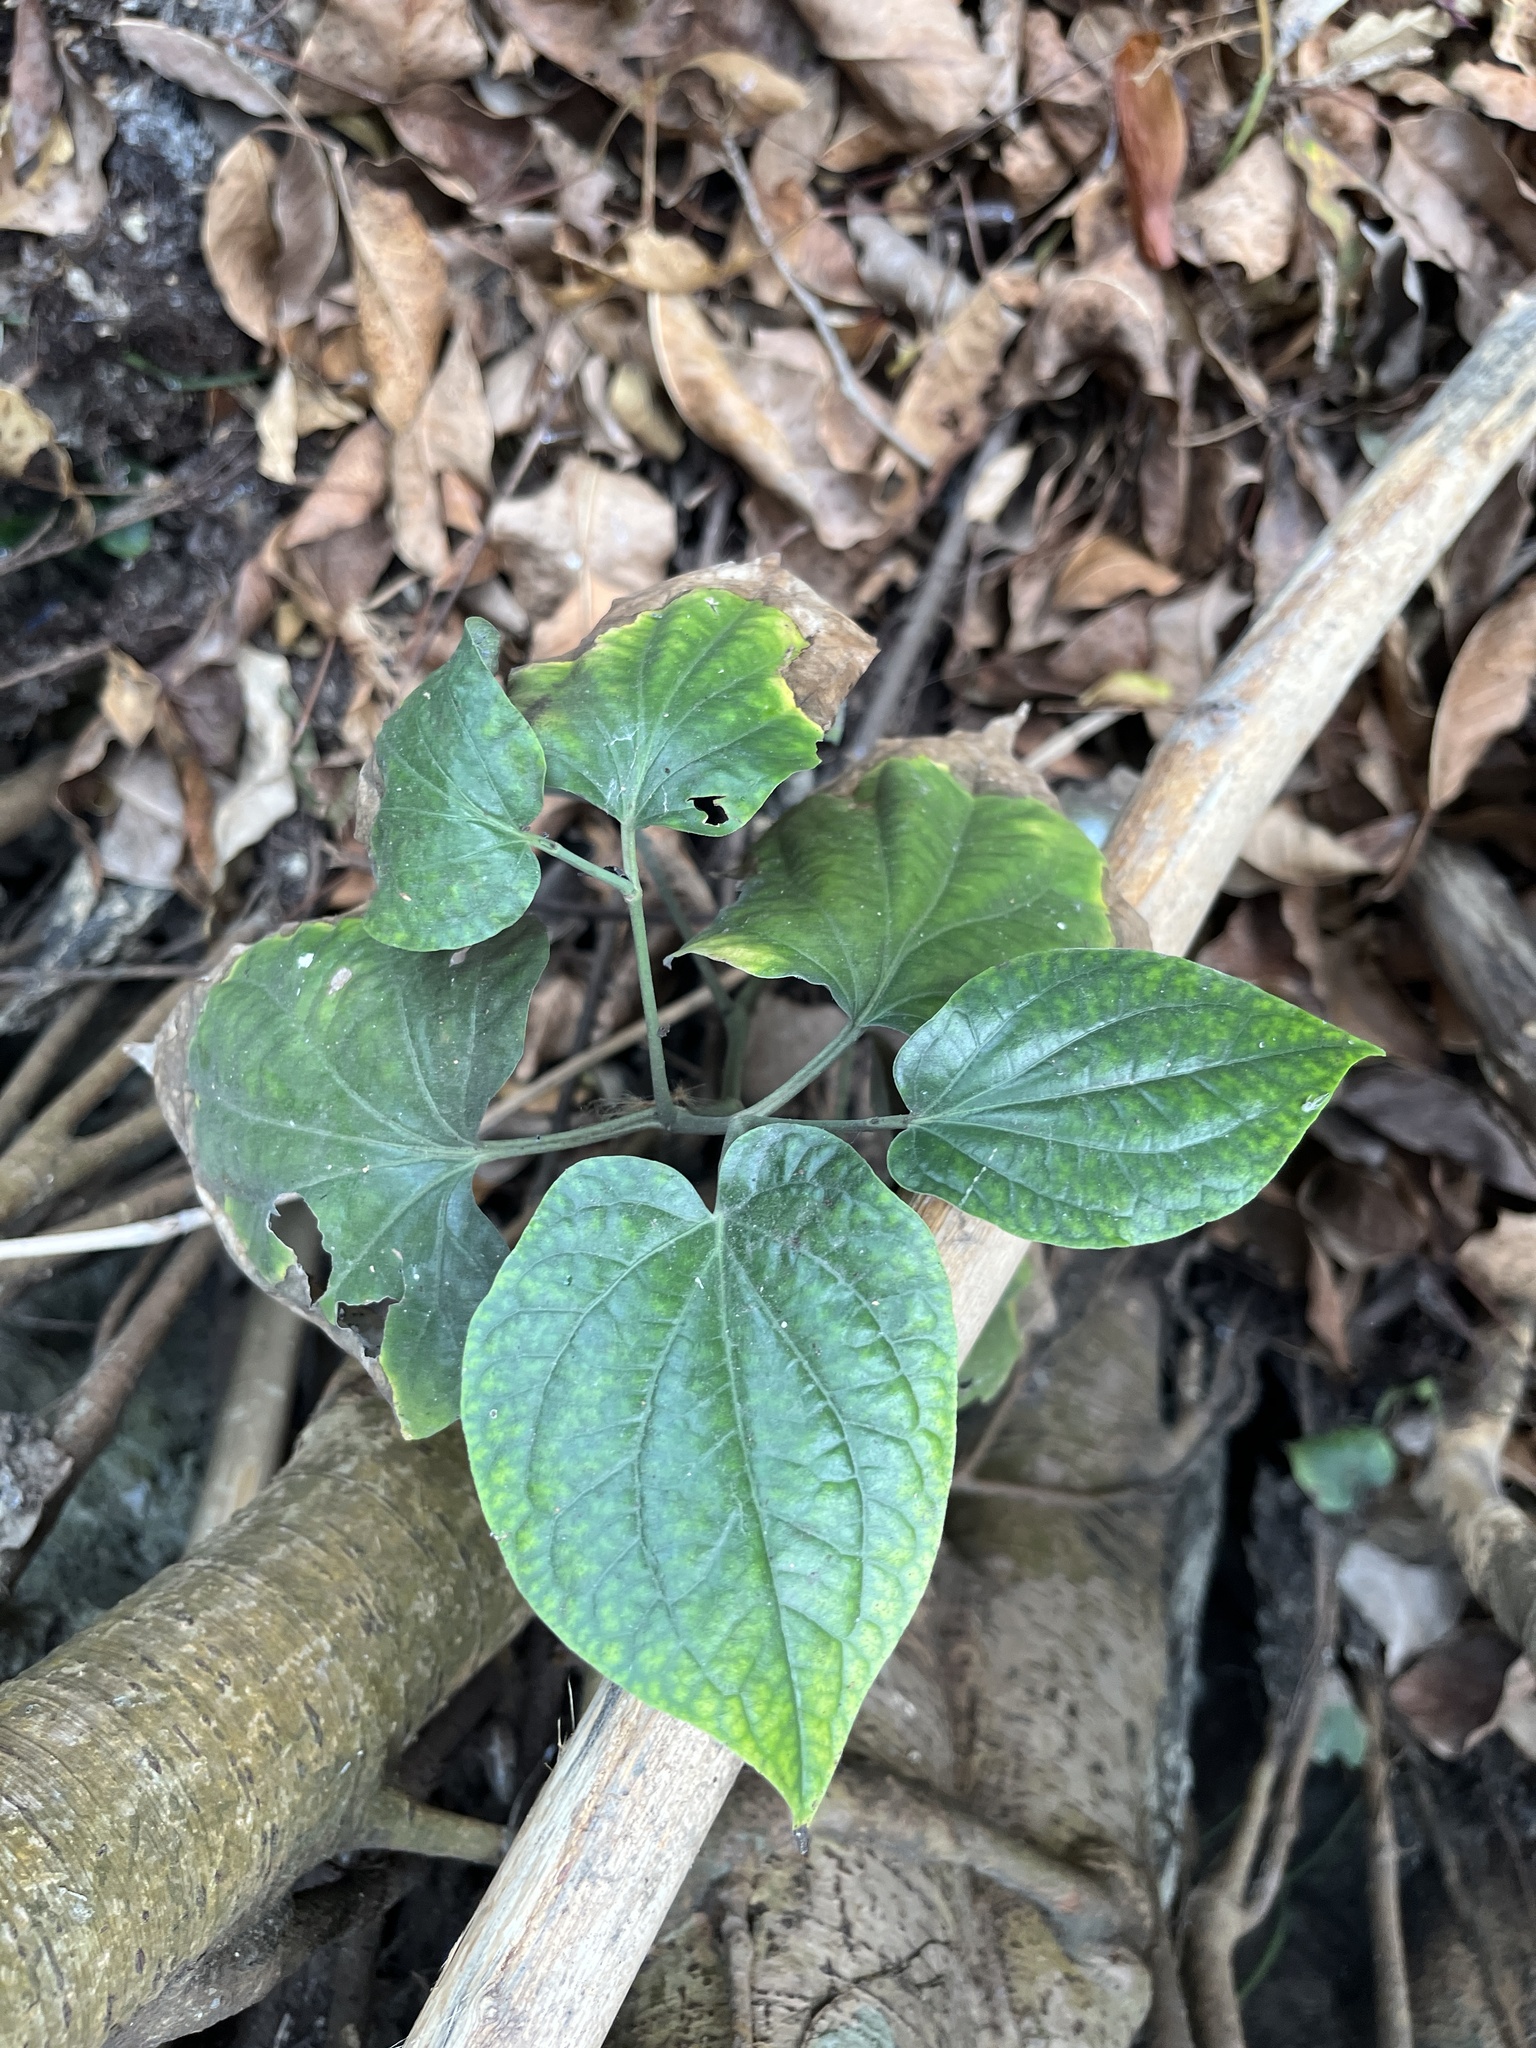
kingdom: Plantae
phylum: Tracheophyta
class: Magnoliopsida
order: Piperales
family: Piperaceae
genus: Piper
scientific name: Piper sarmentosum
